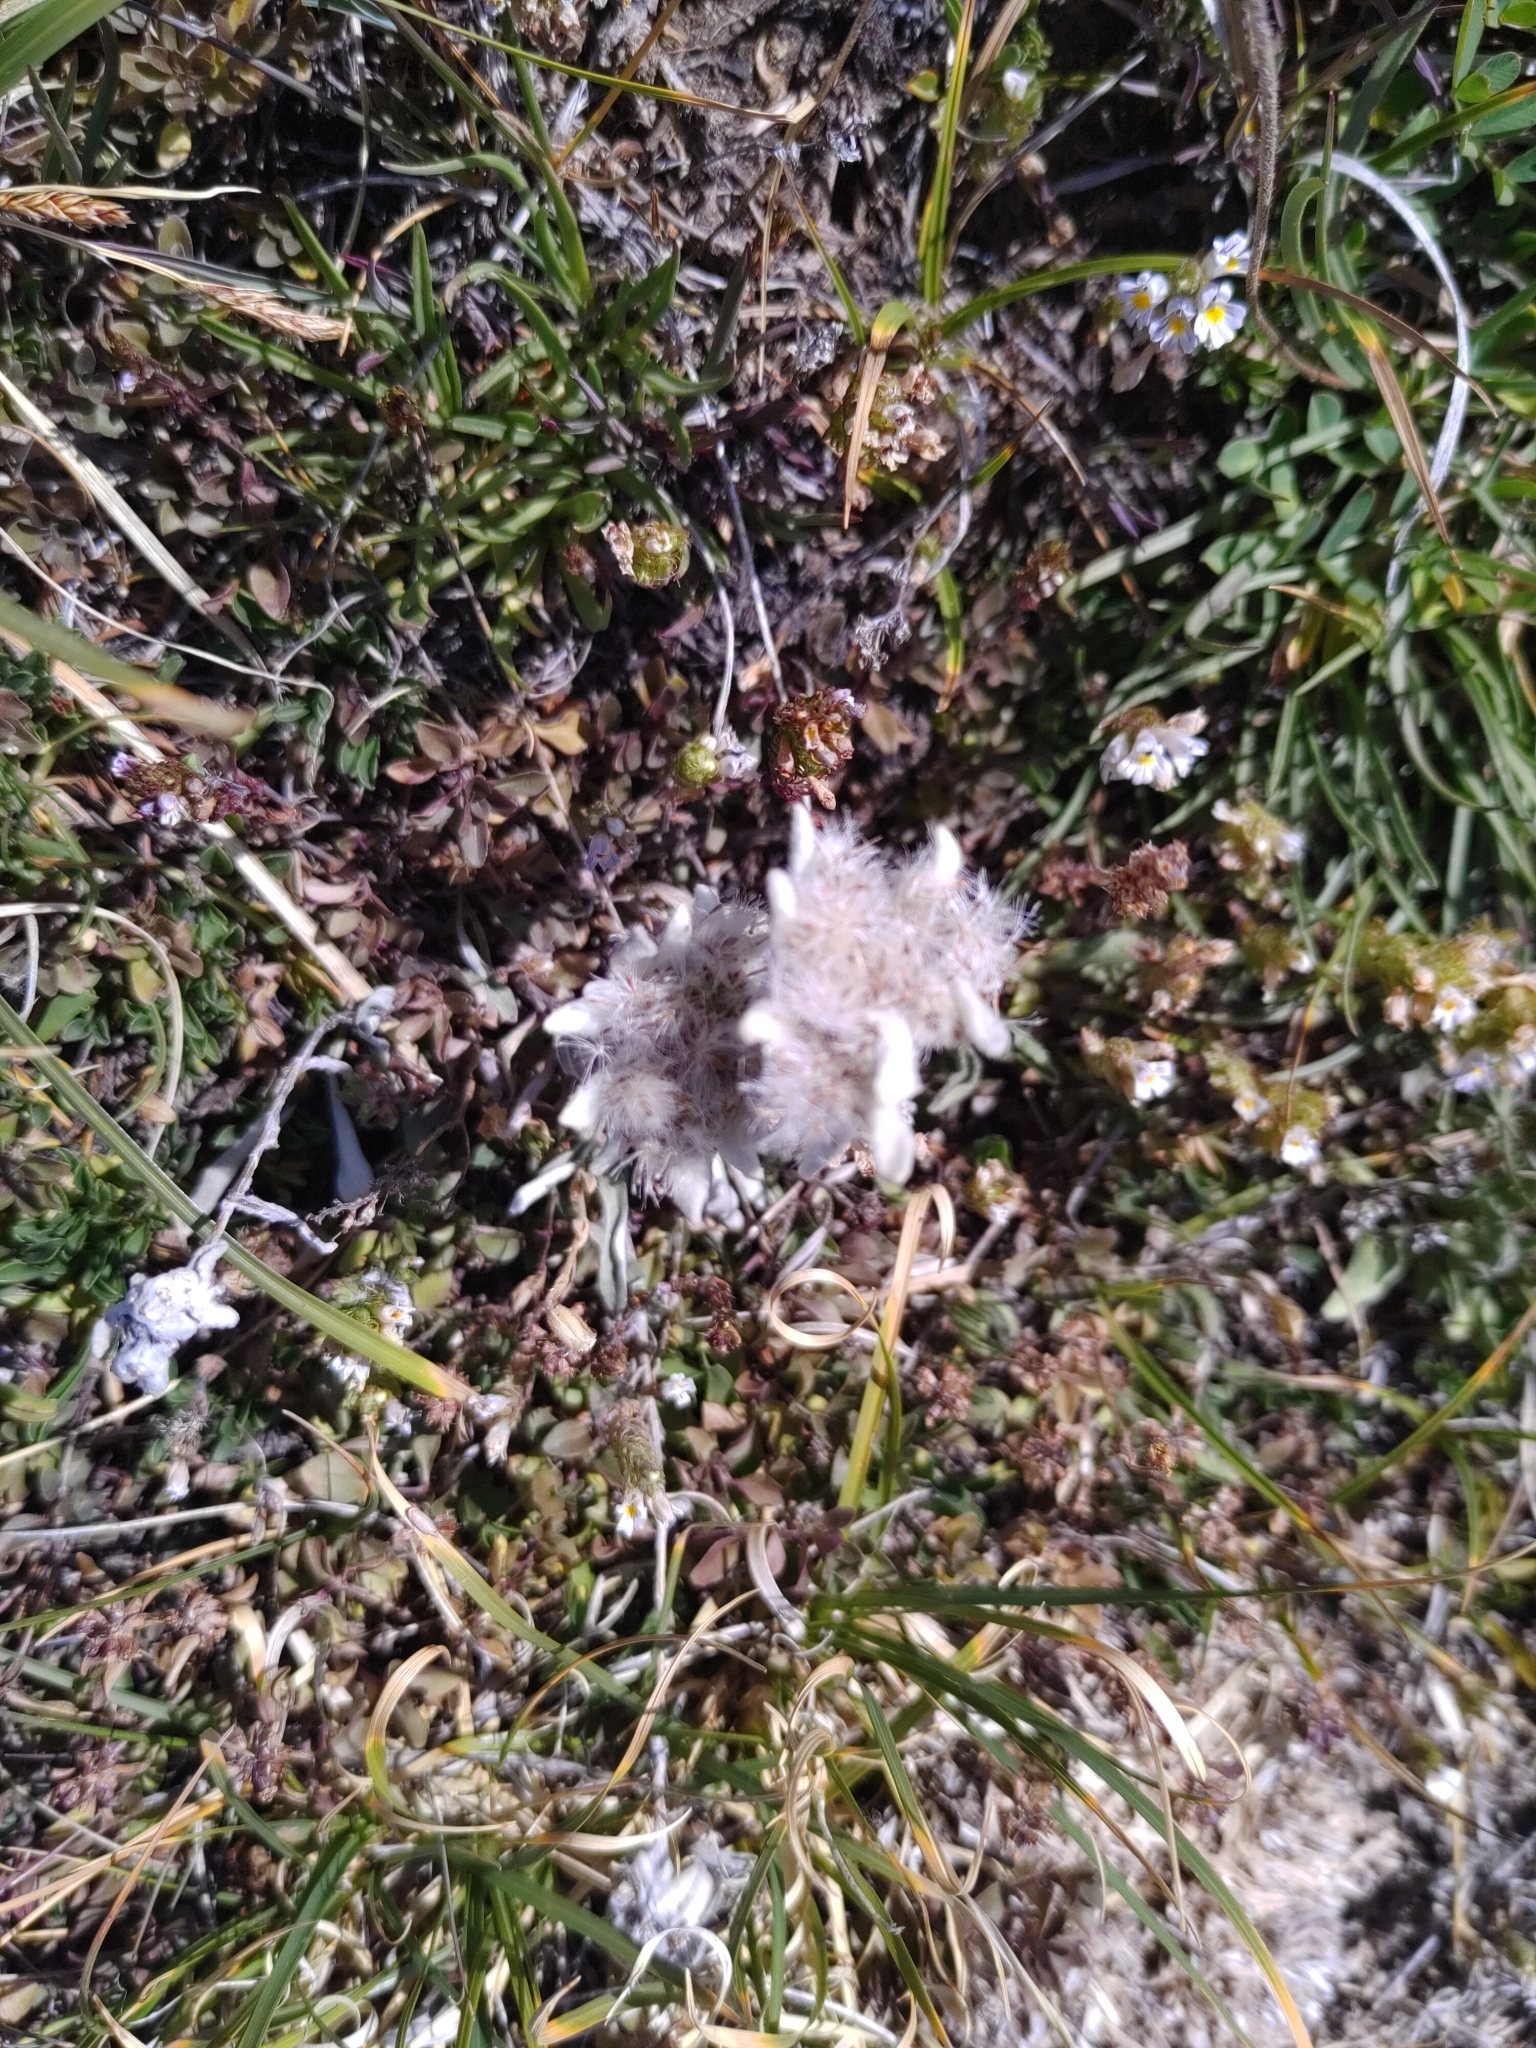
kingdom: Plantae
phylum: Tracheophyta
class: Magnoliopsida
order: Asterales
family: Asteraceae
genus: Leontopodium
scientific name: Leontopodium nivale
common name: Edelweiss
